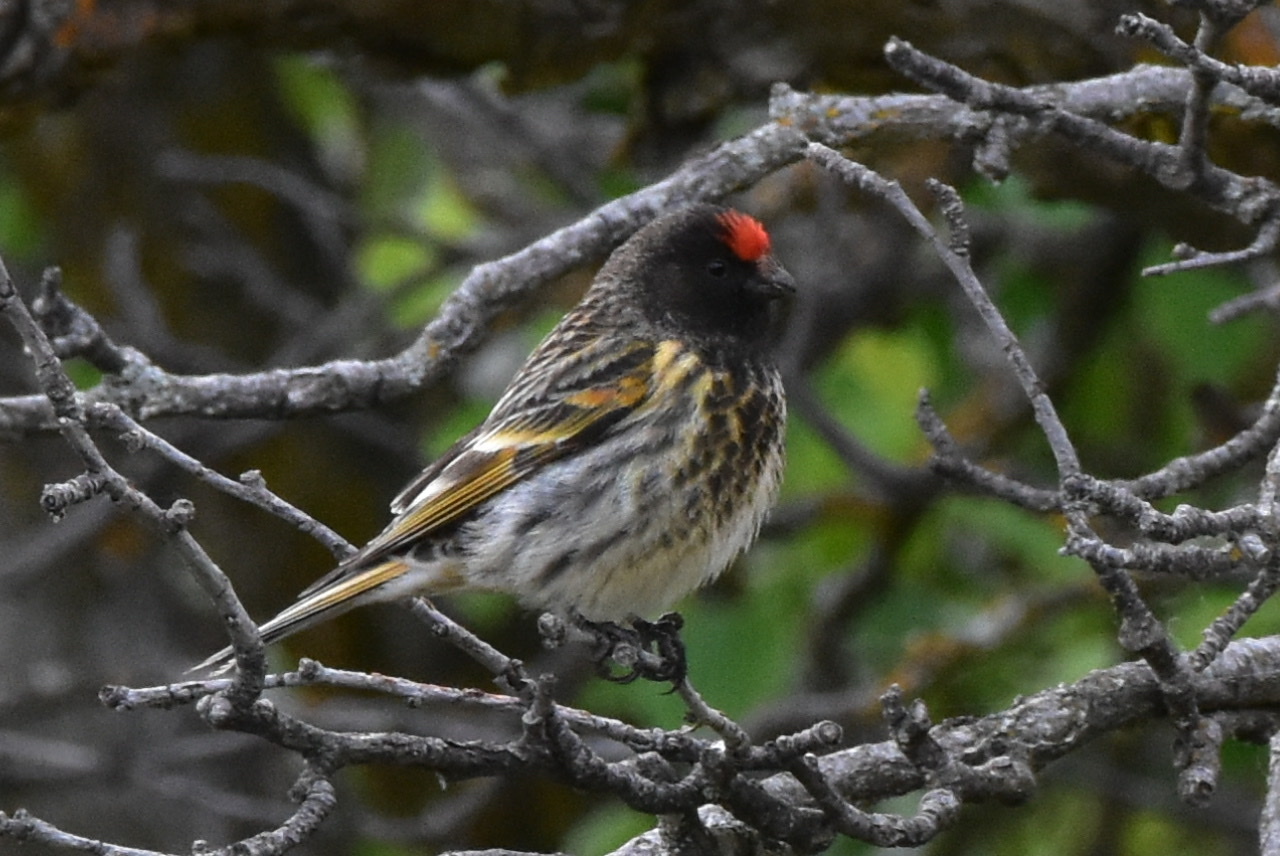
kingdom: Animalia
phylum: Chordata
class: Aves
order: Passeriformes
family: Fringillidae
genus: Serinus
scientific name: Serinus pusillus
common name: Red-fronted serin
